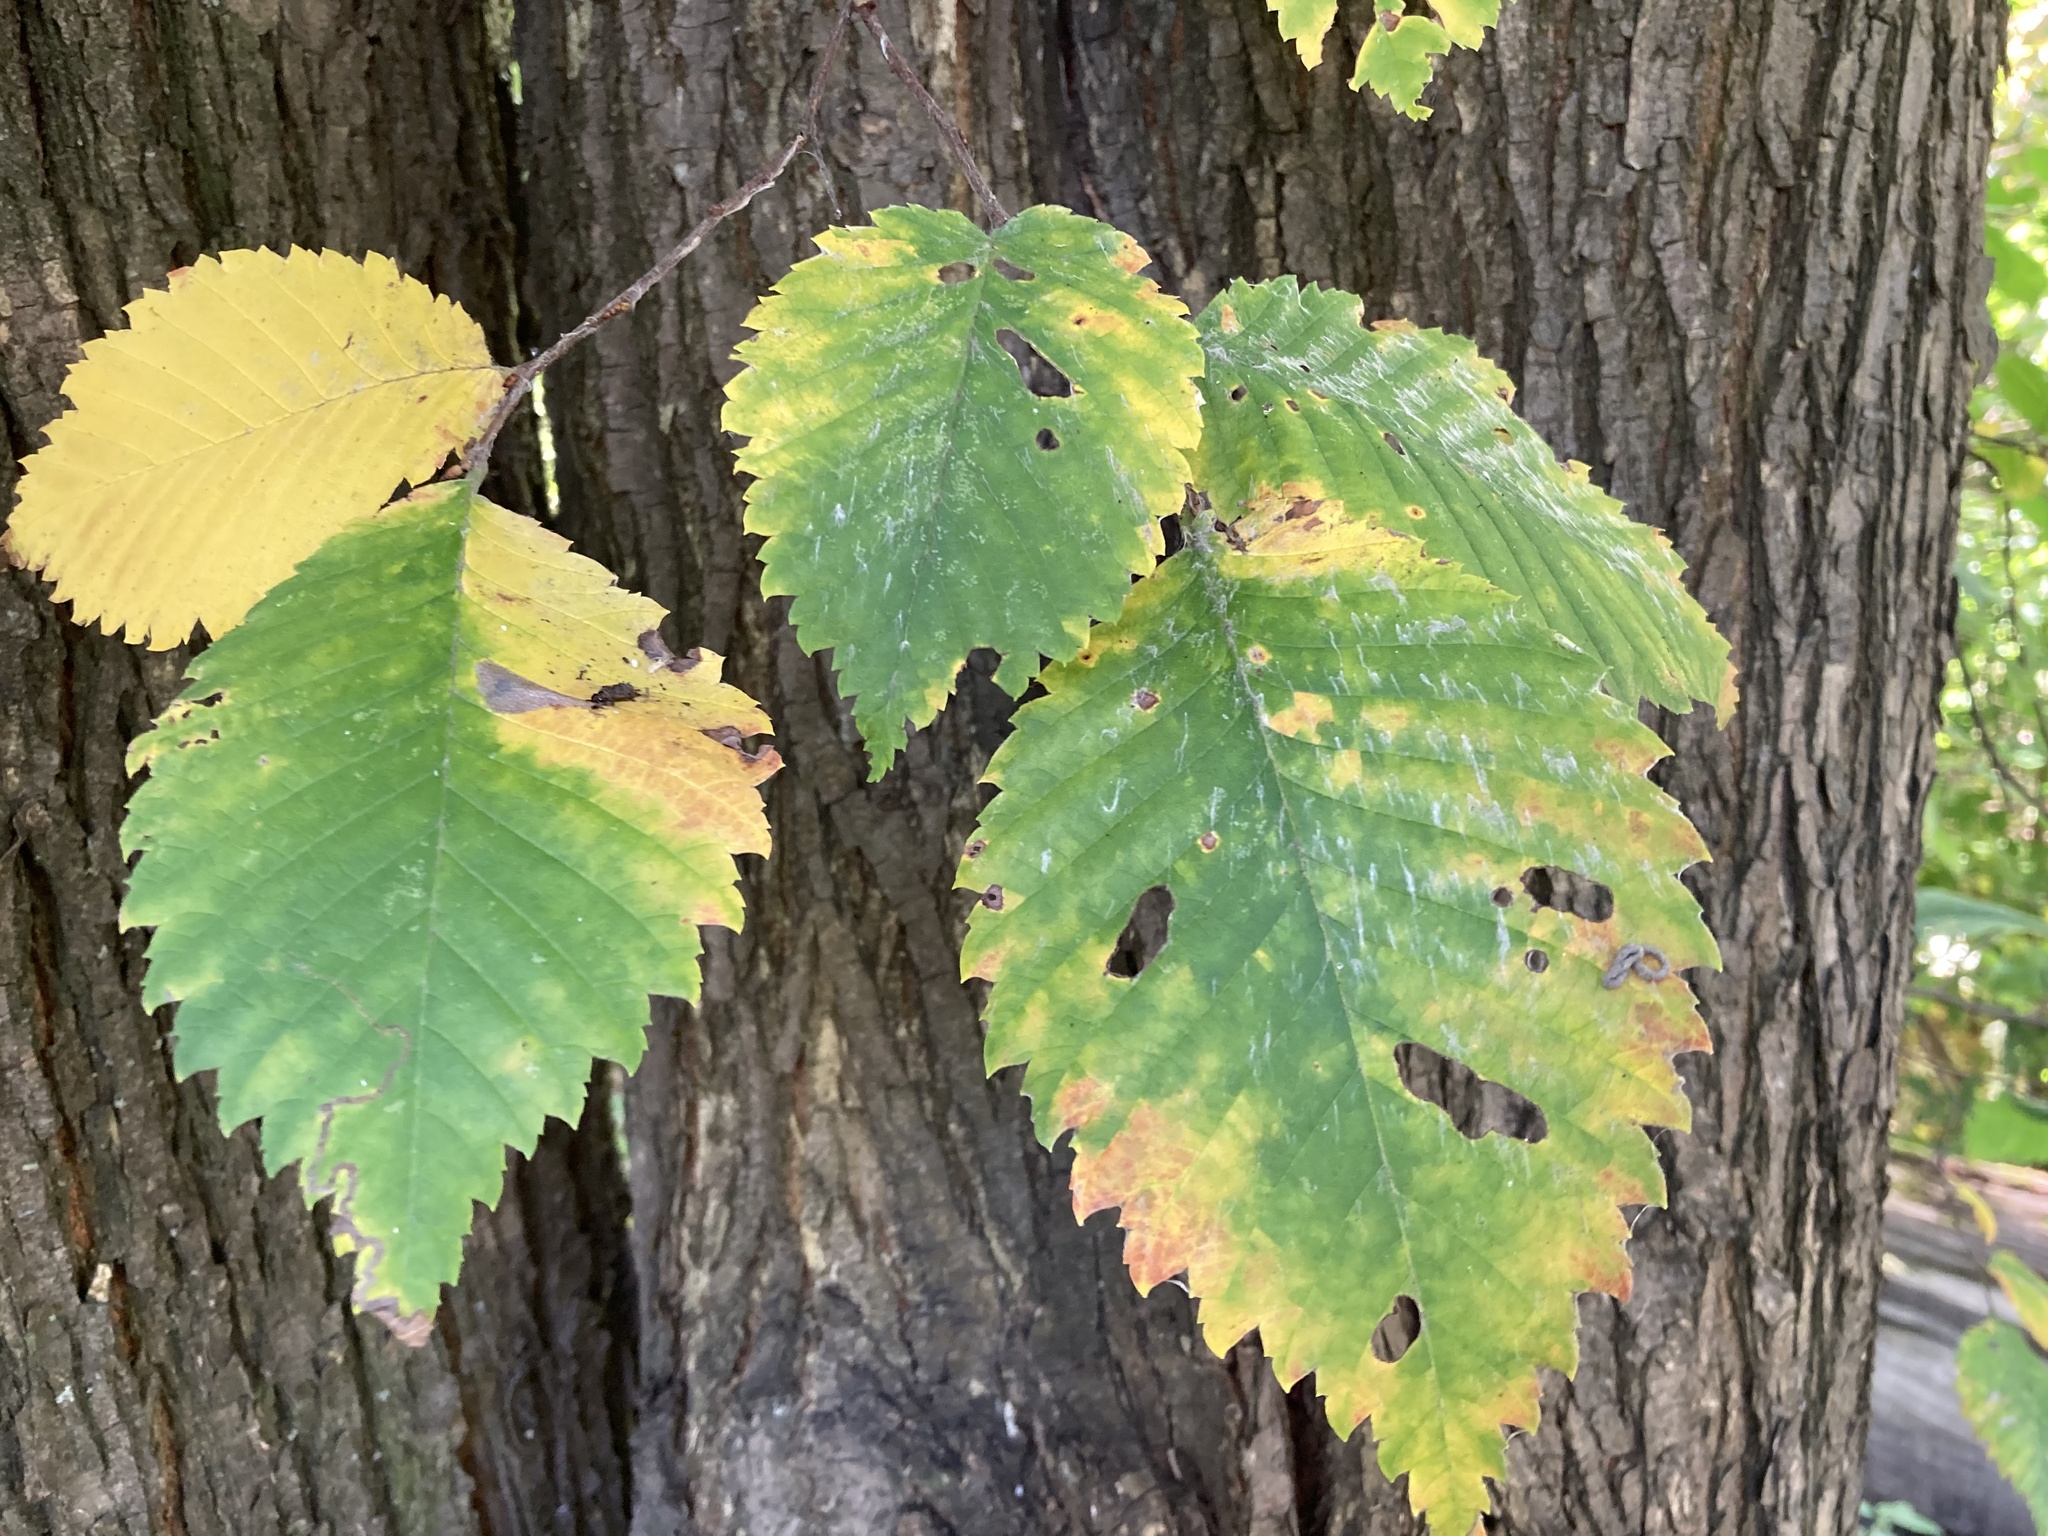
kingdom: Plantae
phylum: Tracheophyta
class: Magnoliopsida
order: Rosales
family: Ulmaceae
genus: Ulmus
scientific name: Ulmus minor
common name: Small-leaved elm
